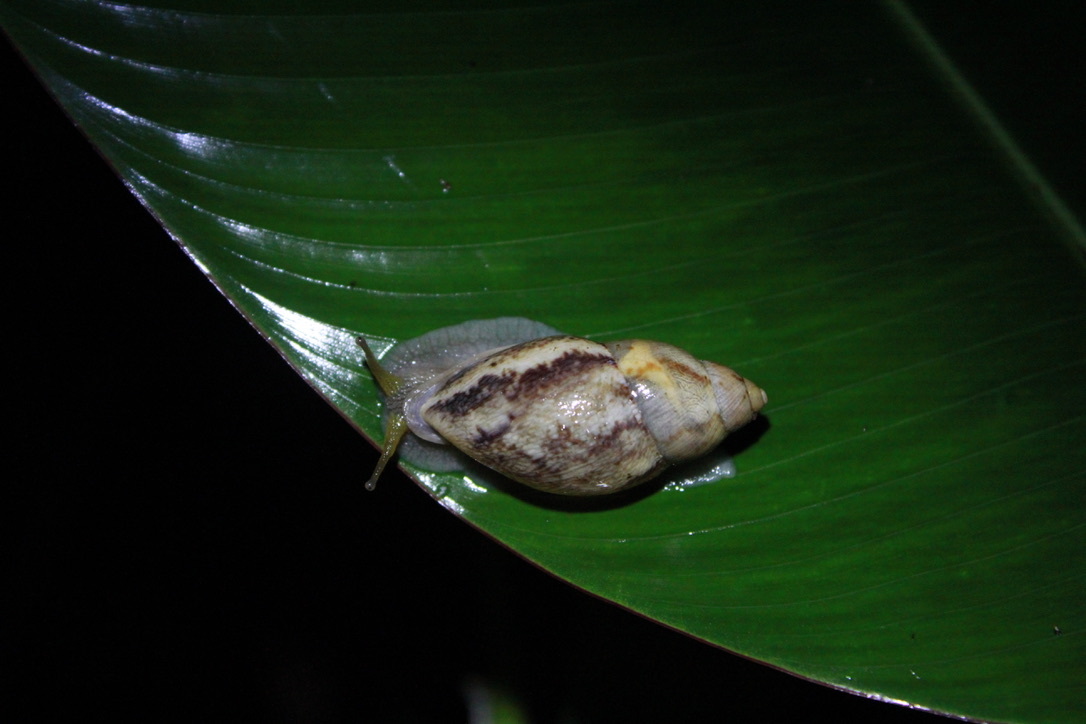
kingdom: Animalia
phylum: Mollusca
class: Gastropoda
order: Stylommatophora
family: Amphibulimidae
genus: Plekocheilus
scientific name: Plekocheilus glaber
